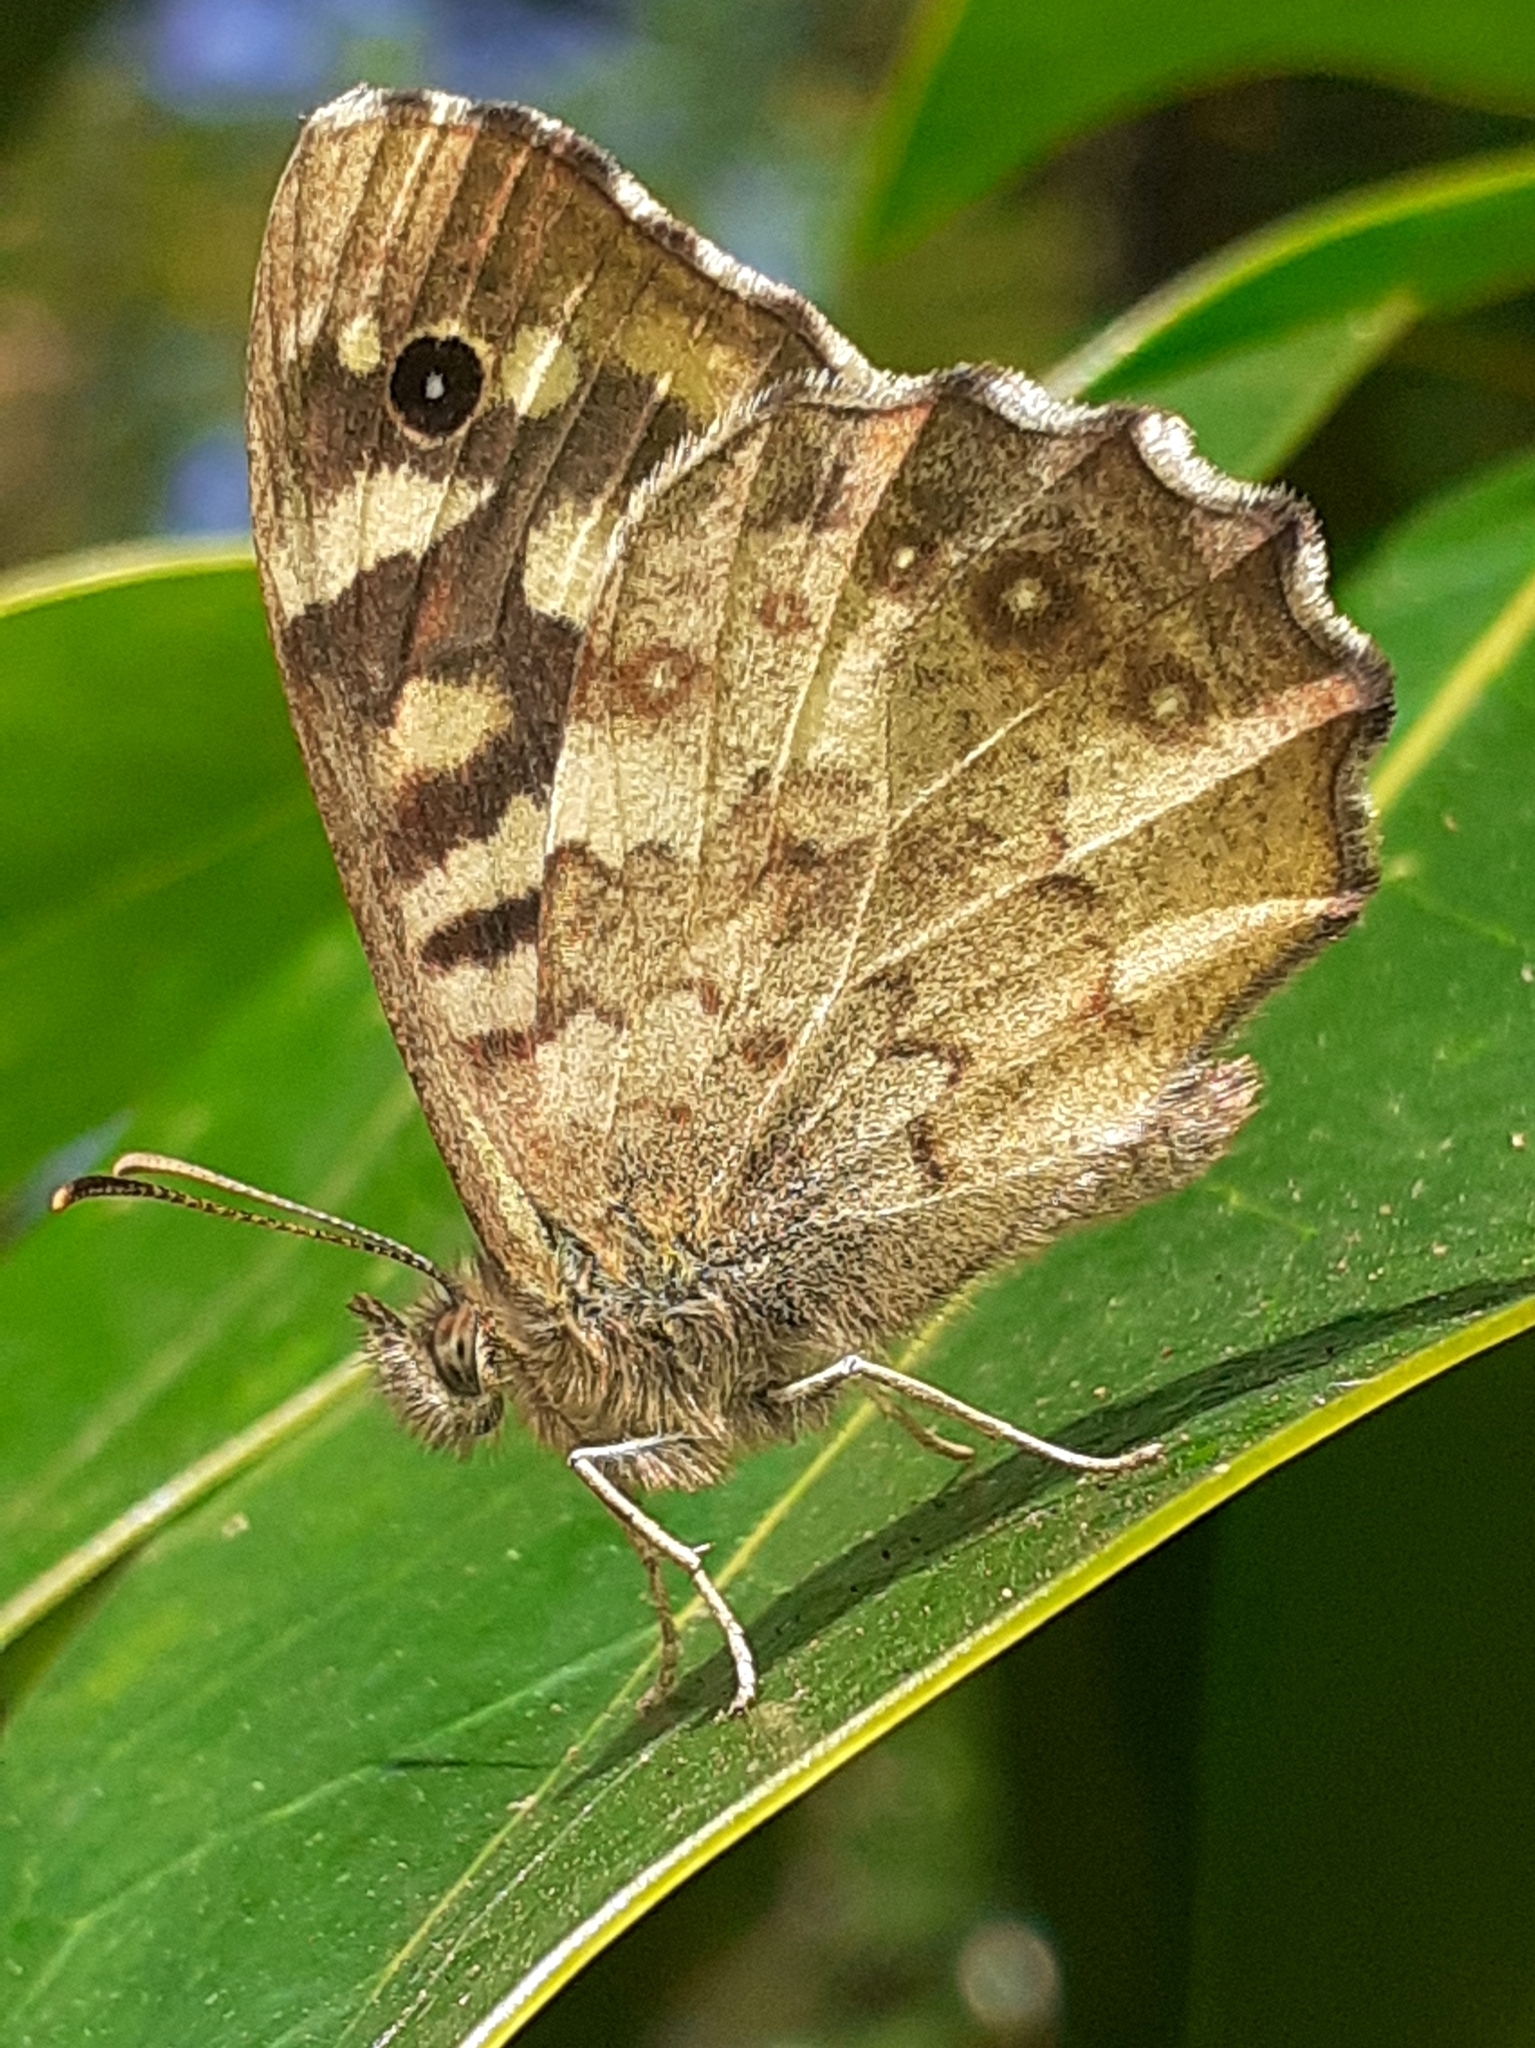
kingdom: Animalia
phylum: Arthropoda
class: Insecta
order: Lepidoptera
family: Nymphalidae
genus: Pararge
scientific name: Pararge aegeria
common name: Speckled wood
